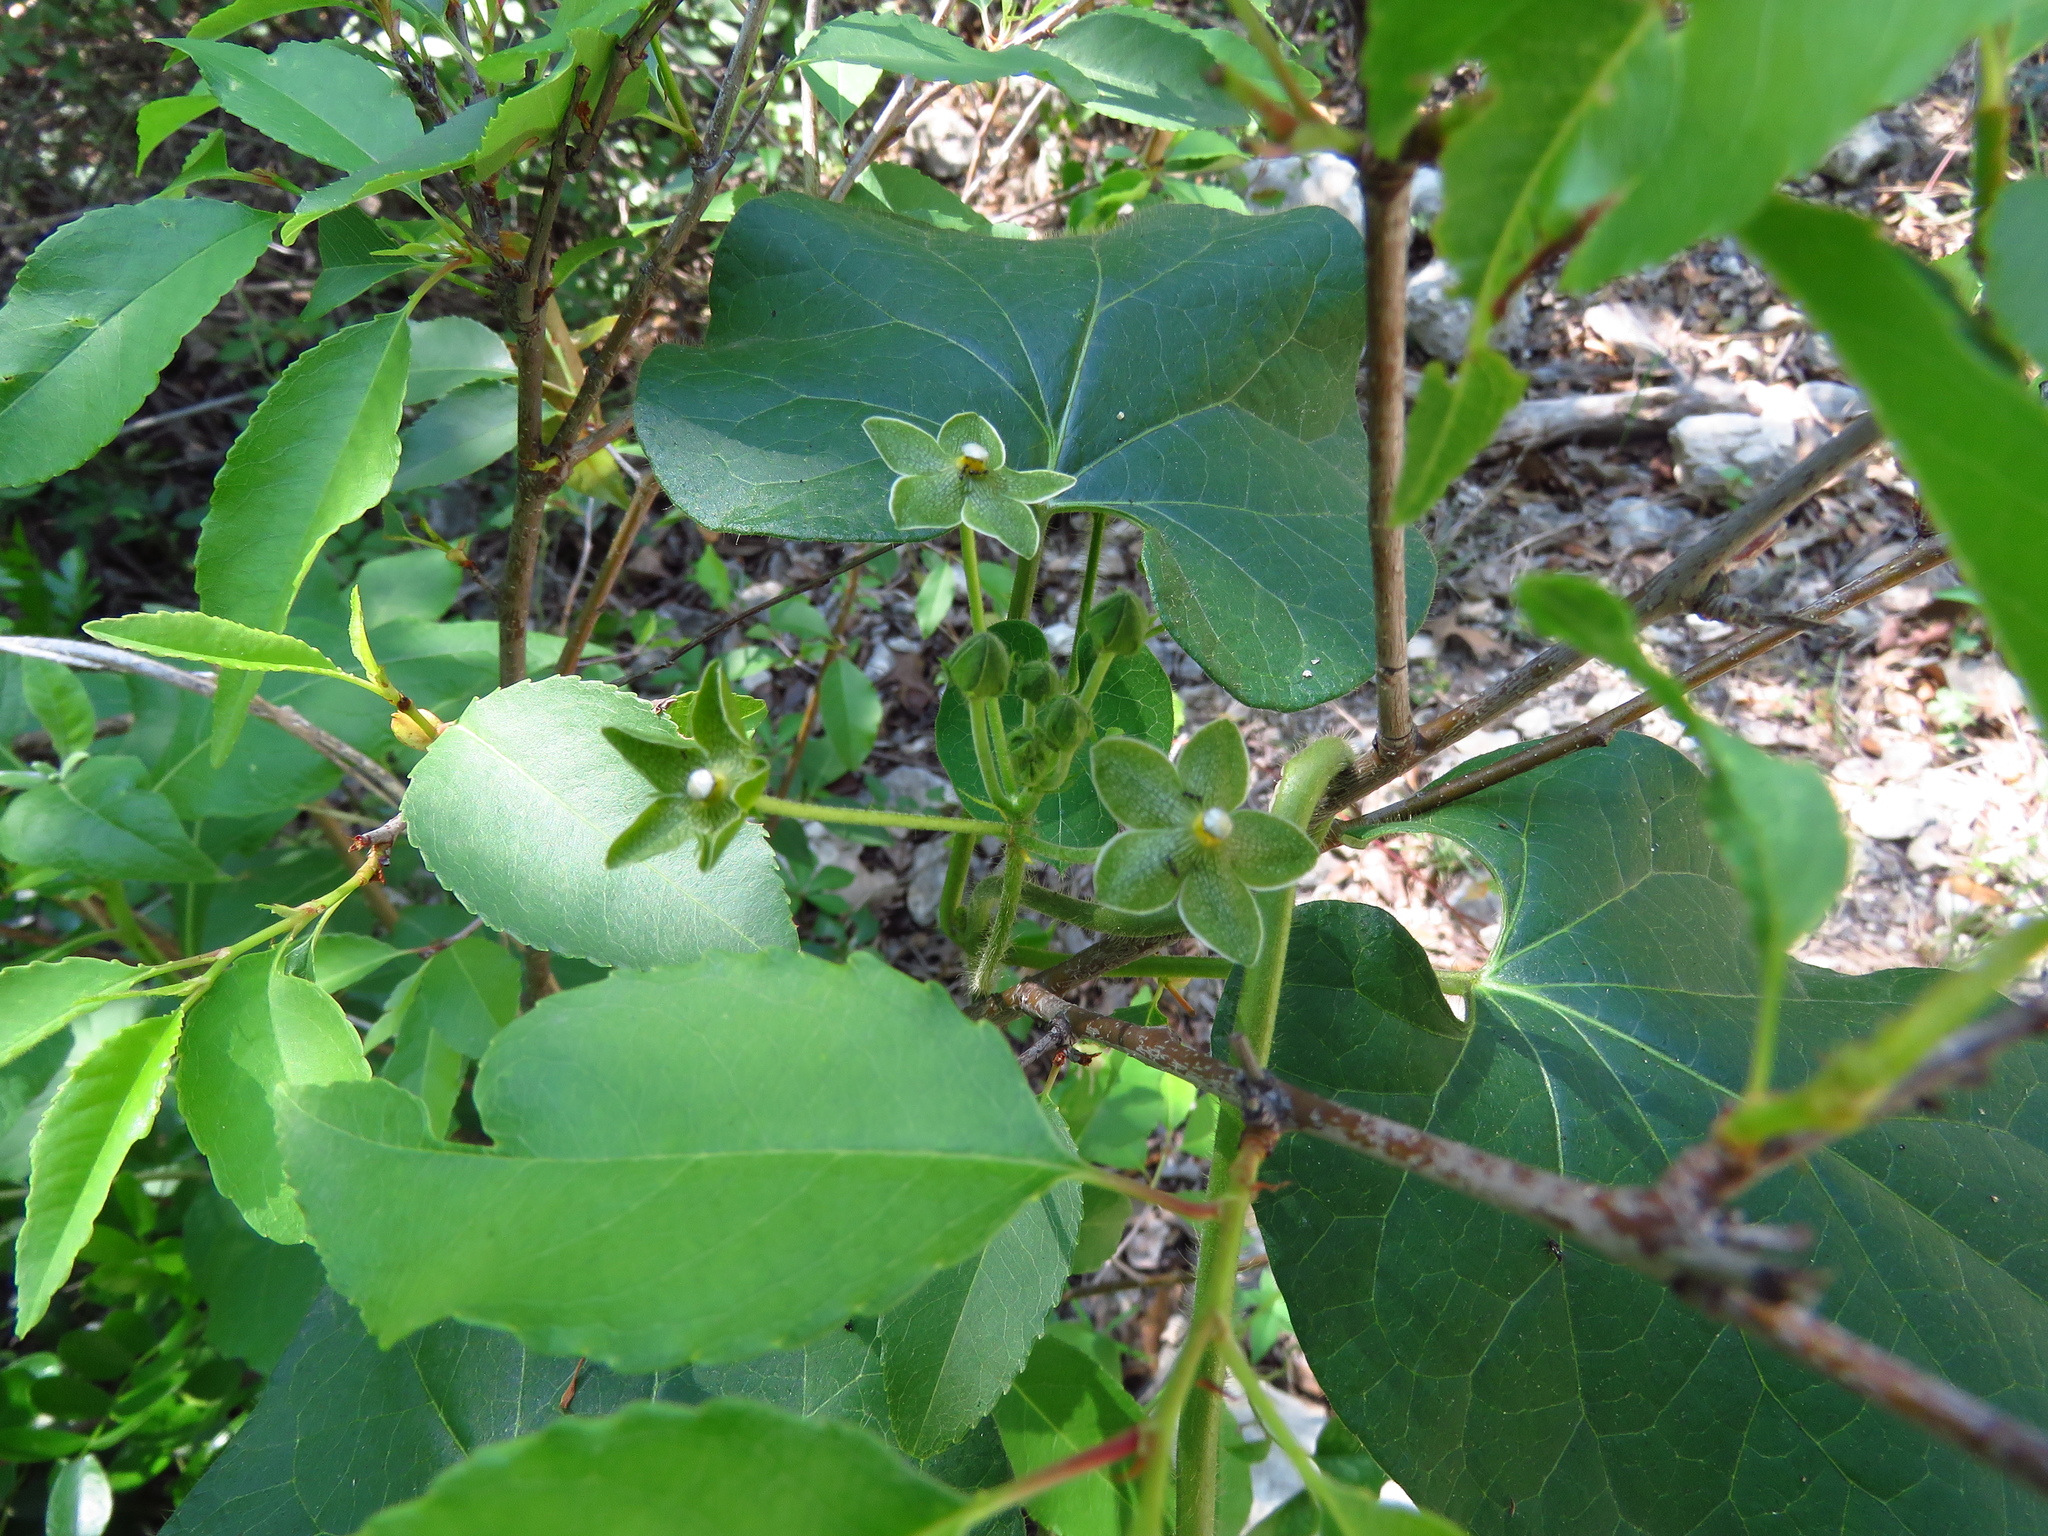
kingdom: Plantae
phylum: Tracheophyta
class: Magnoliopsida
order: Gentianales
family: Apocynaceae
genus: Dictyanthus
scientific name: Dictyanthus reticulatus
